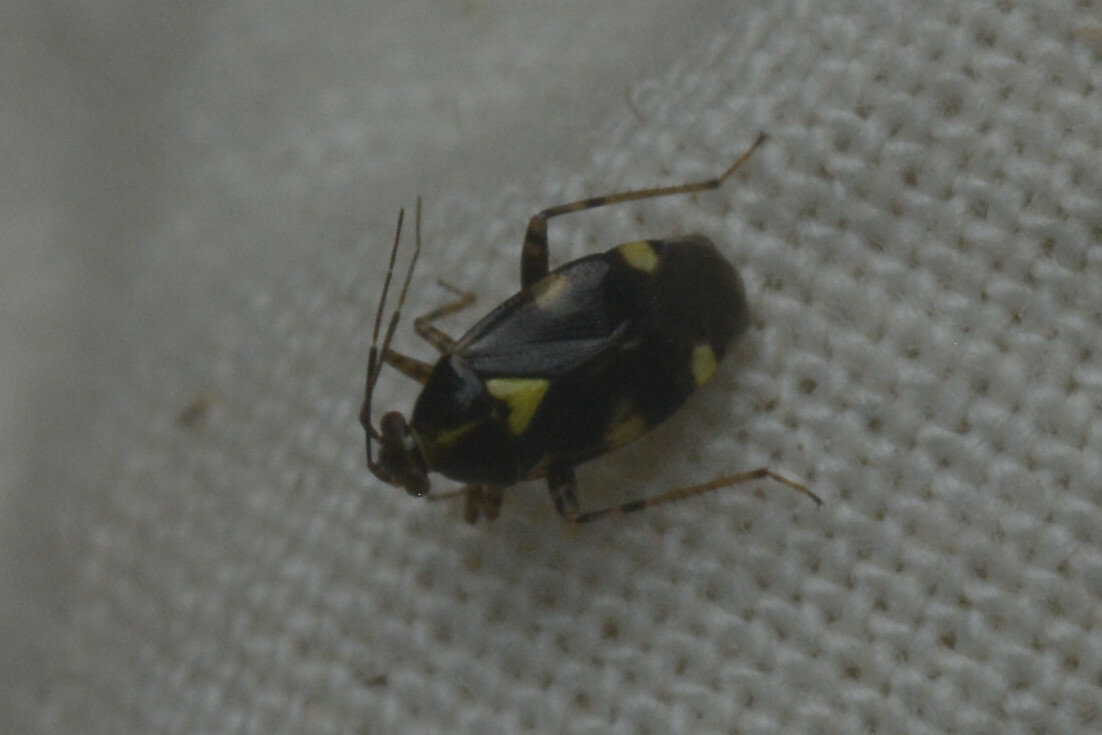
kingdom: Animalia
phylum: Arthropoda
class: Insecta
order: Hemiptera
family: Miridae
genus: Liocoris
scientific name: Liocoris tripustulatus
